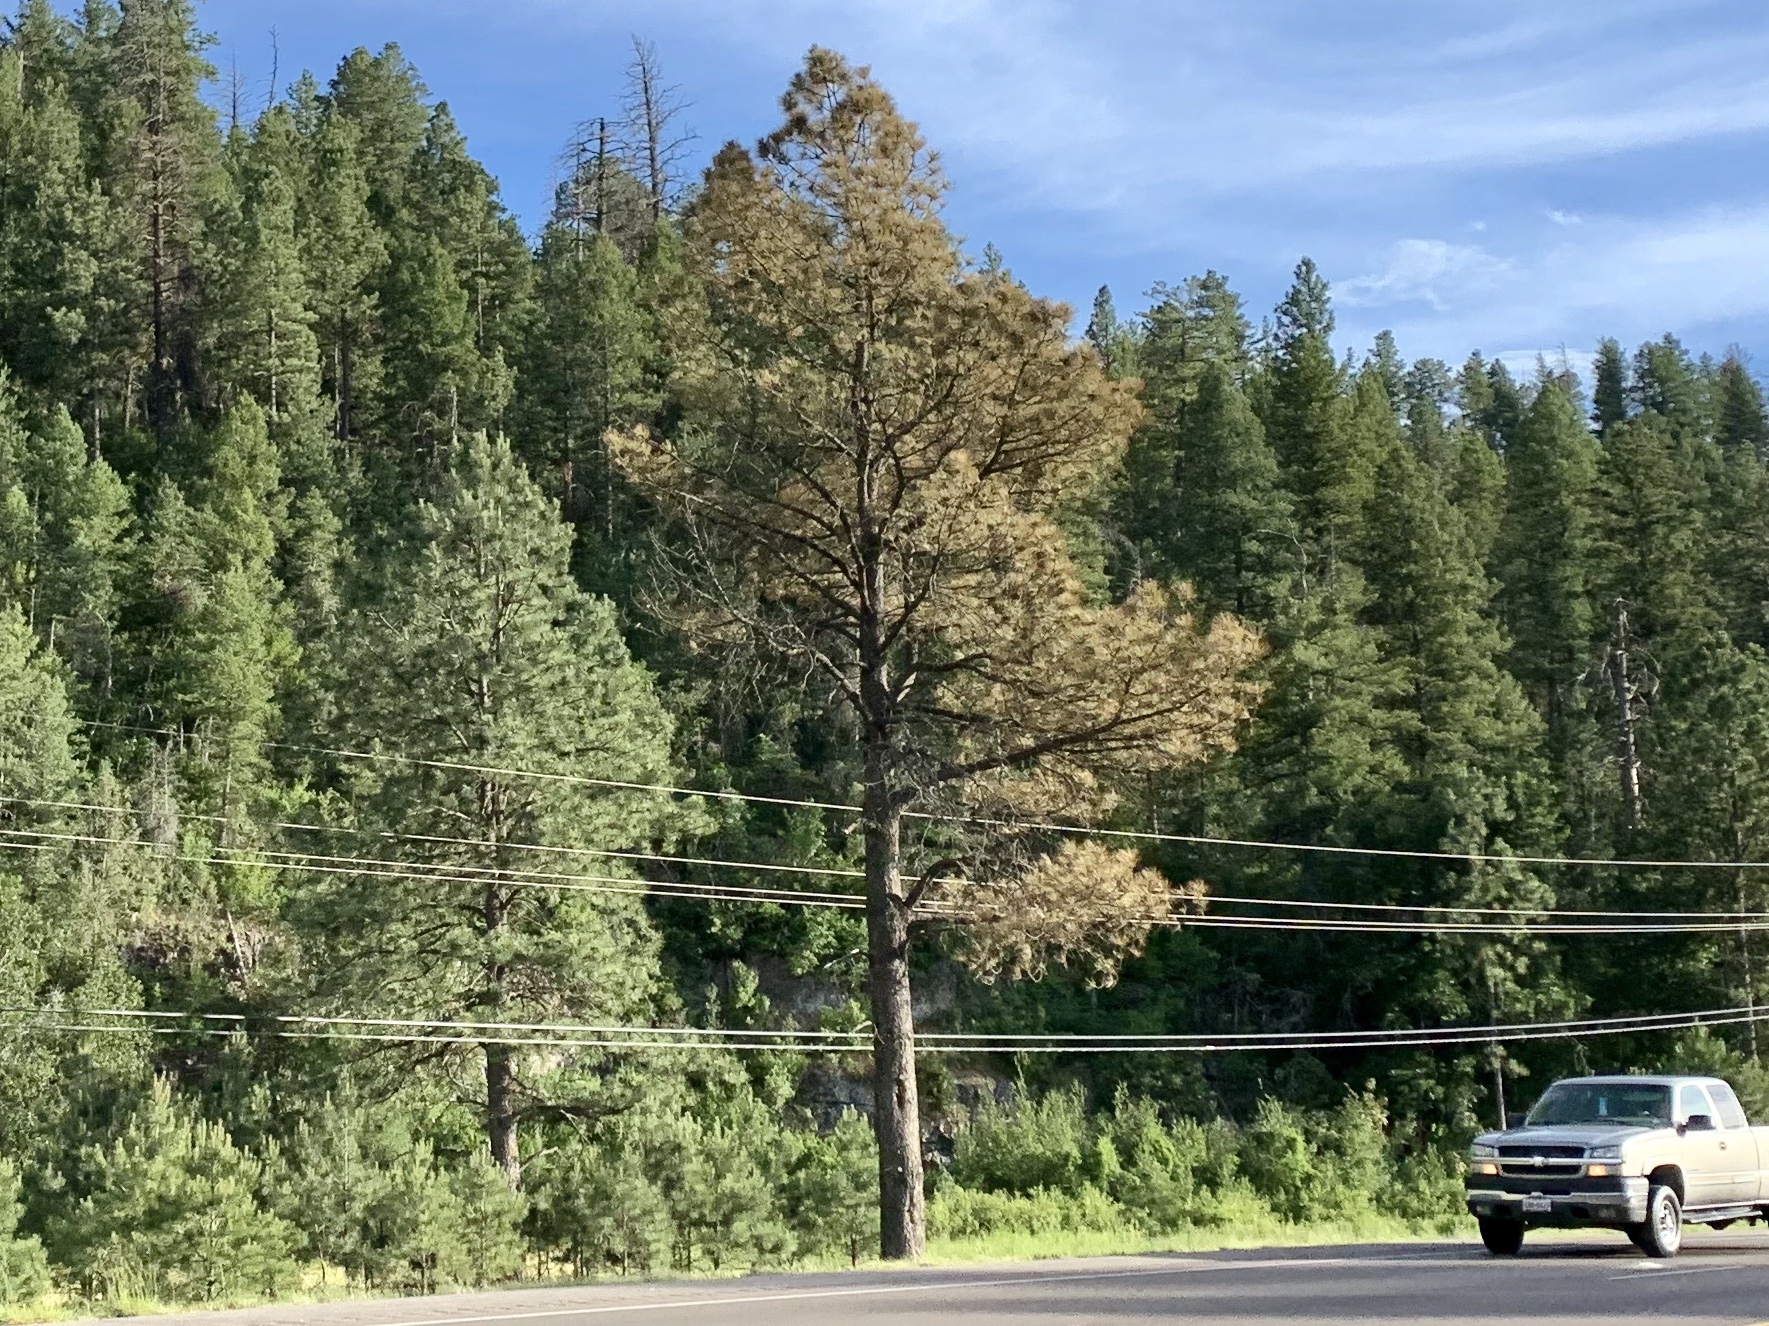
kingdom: Plantae
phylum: Tracheophyta
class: Pinopsida
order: Pinales
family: Pinaceae
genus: Pinus
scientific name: Pinus ponderosa
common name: Western yellow-pine
